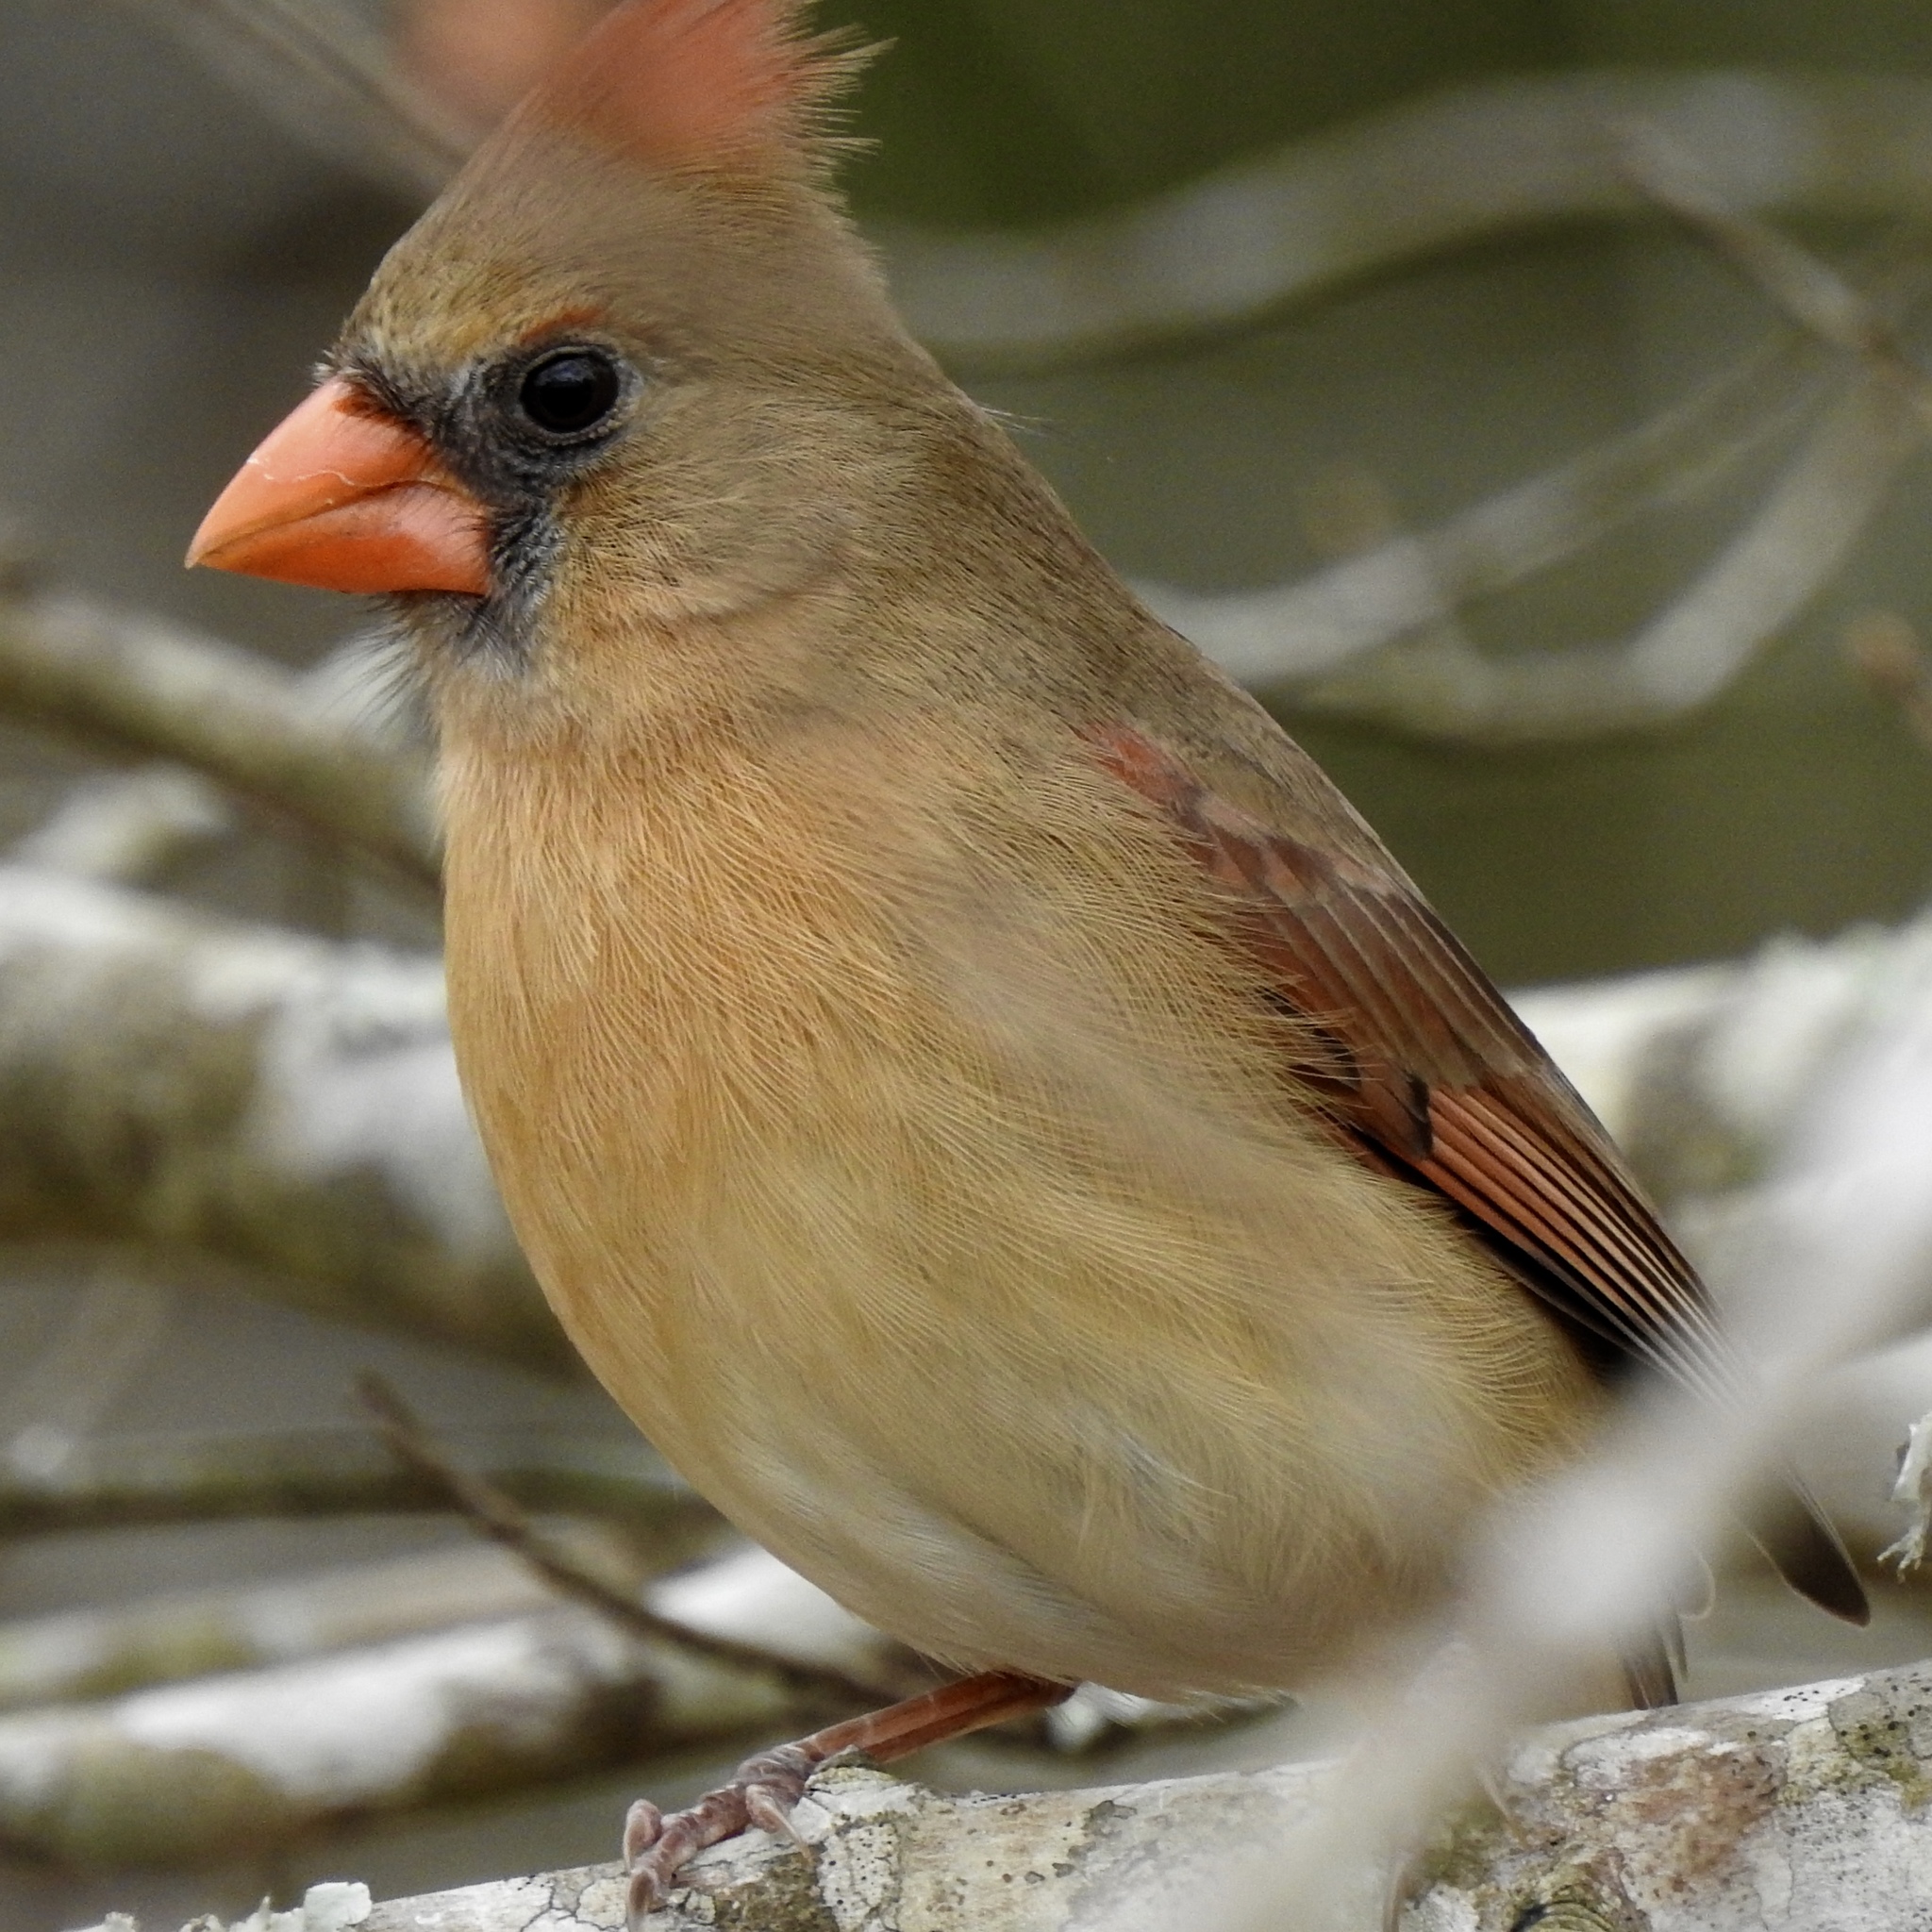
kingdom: Animalia
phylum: Chordata
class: Aves
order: Passeriformes
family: Cardinalidae
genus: Cardinalis
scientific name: Cardinalis cardinalis
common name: Northern cardinal
